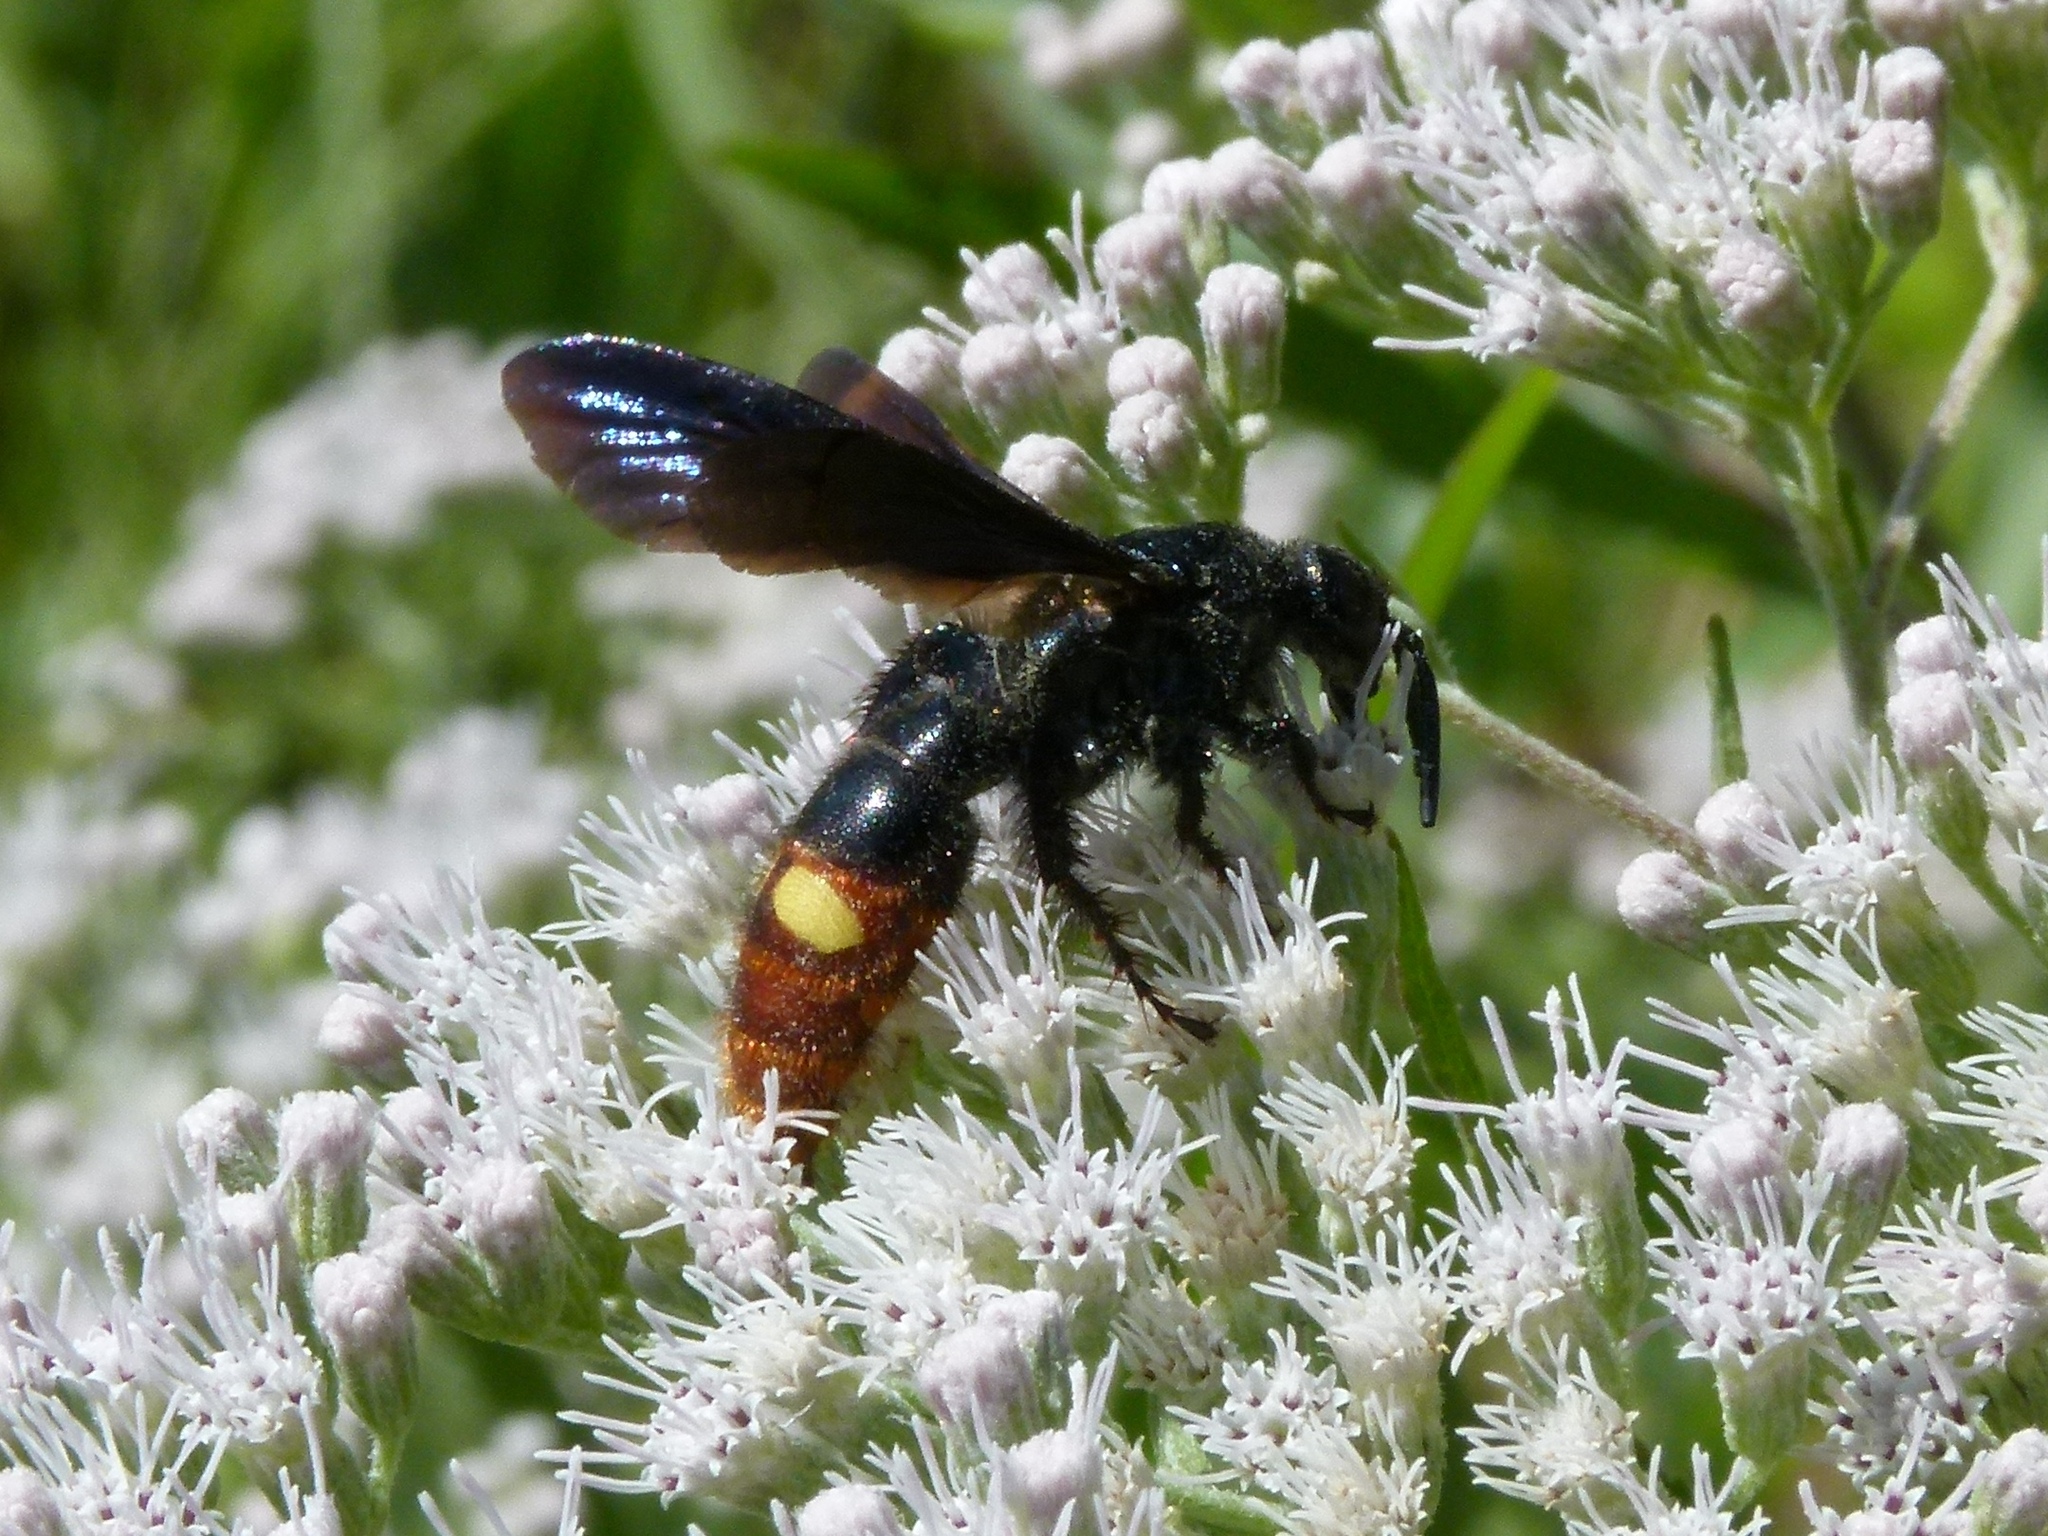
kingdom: Animalia
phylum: Arthropoda
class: Insecta
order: Hymenoptera
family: Scoliidae
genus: Scolia
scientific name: Scolia dubia
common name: Blue-winged scoliid wasp
